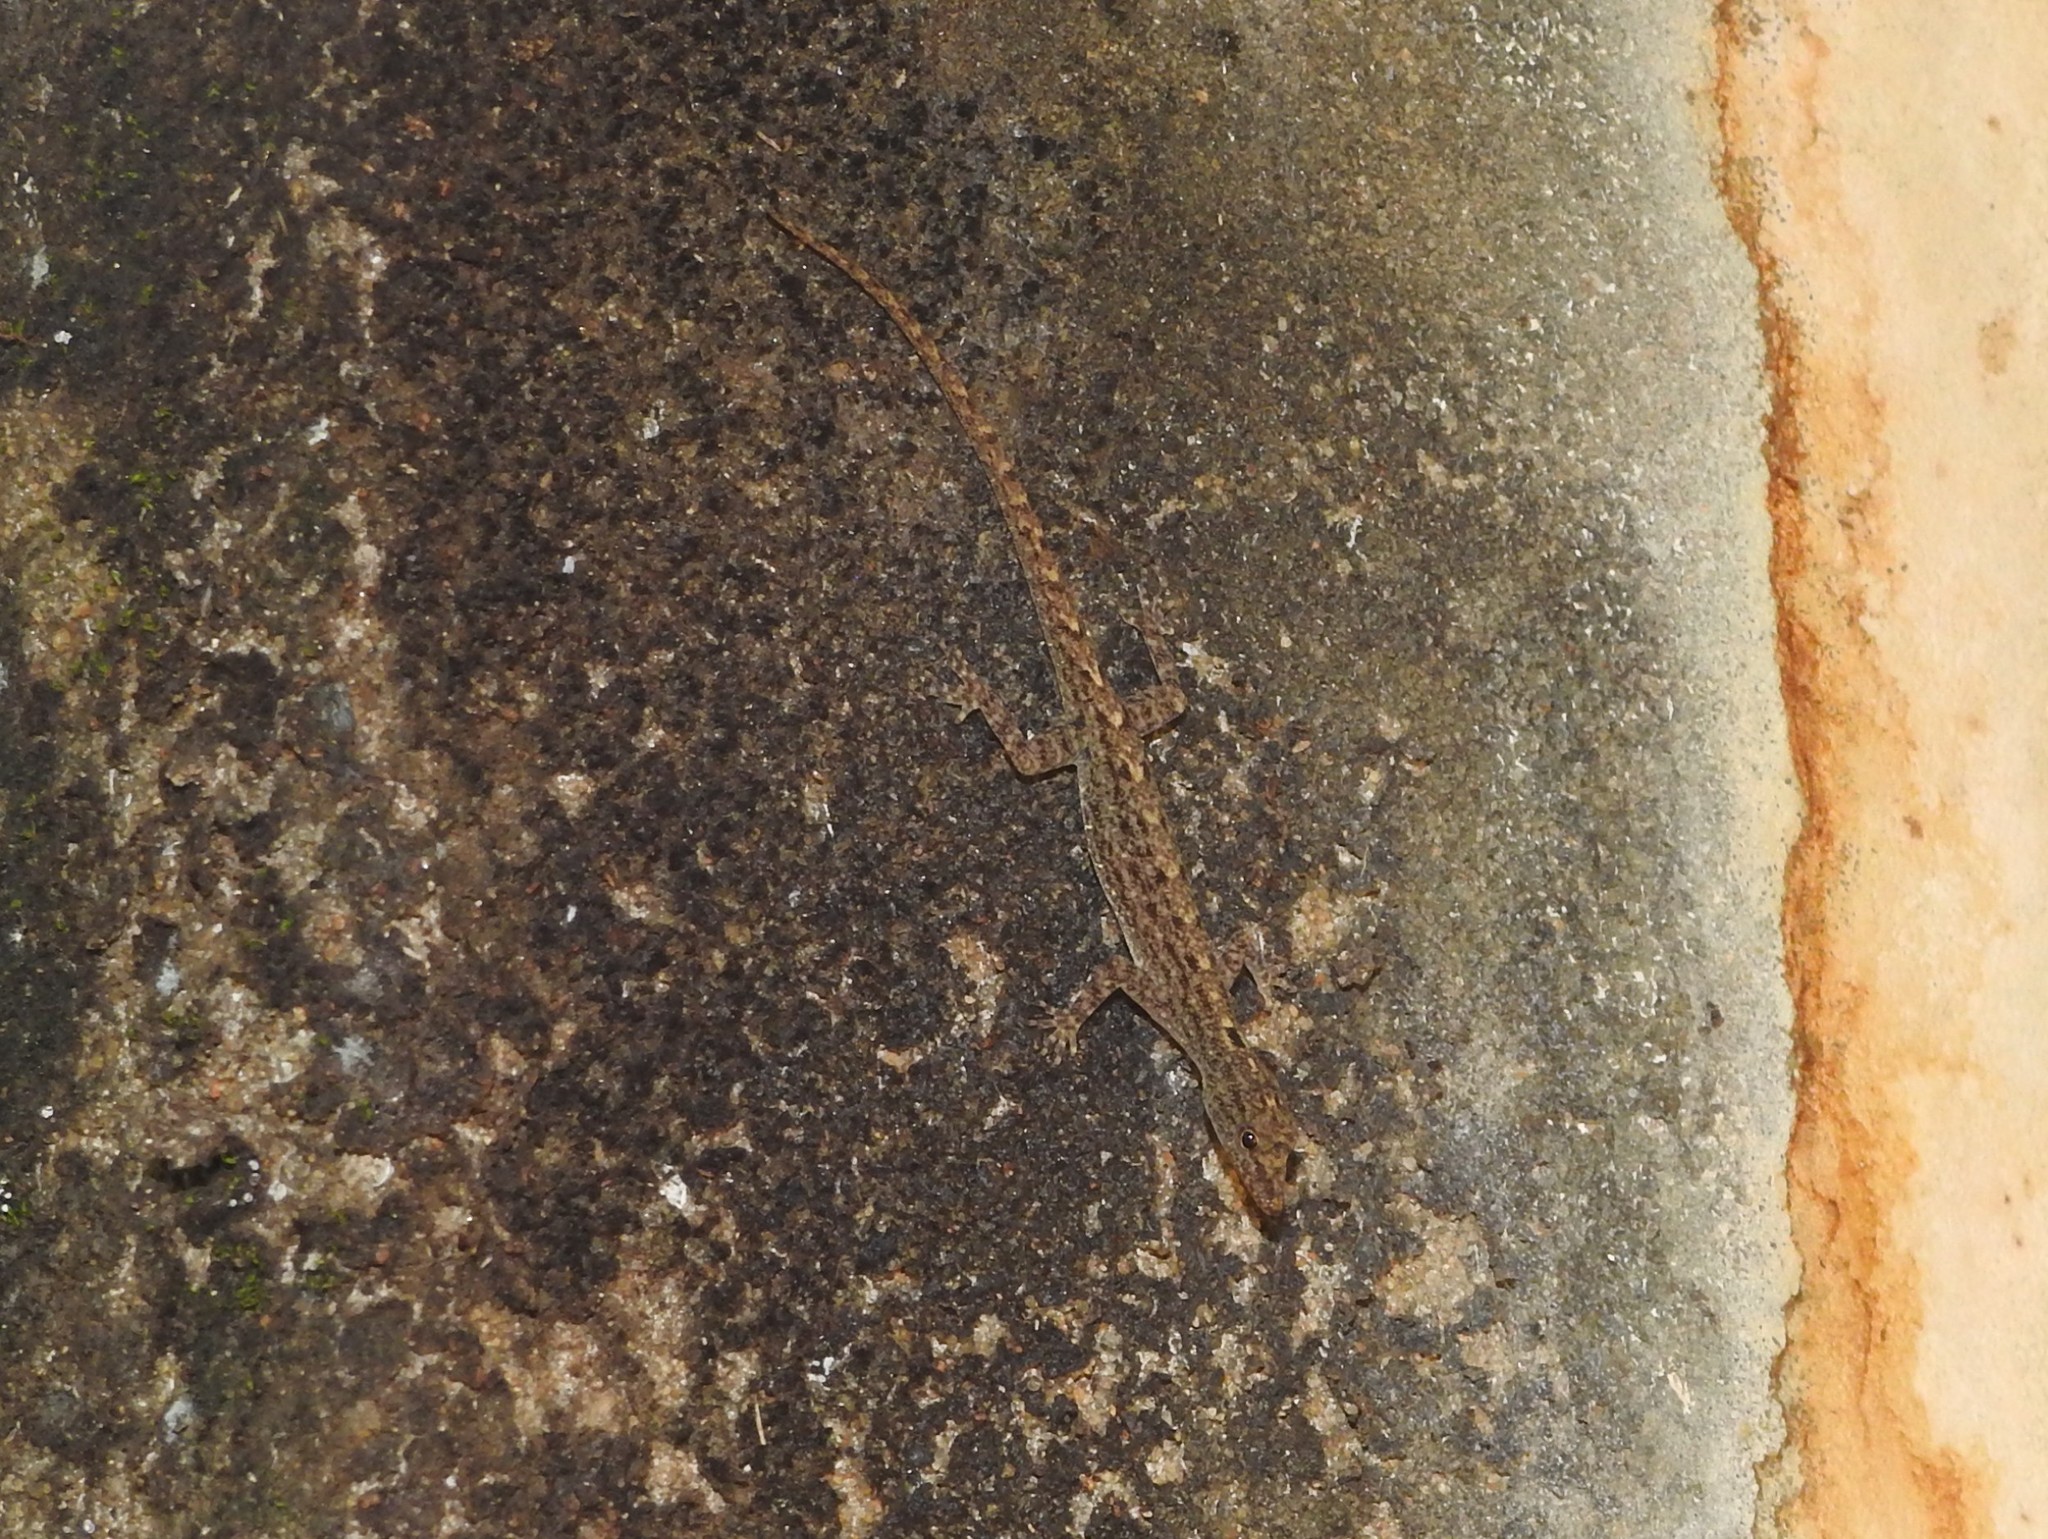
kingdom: Animalia
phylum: Chordata
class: Squamata
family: Gekkonidae
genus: Cnemaspis
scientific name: Cnemaspis littoralis
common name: Coastal day gecko
